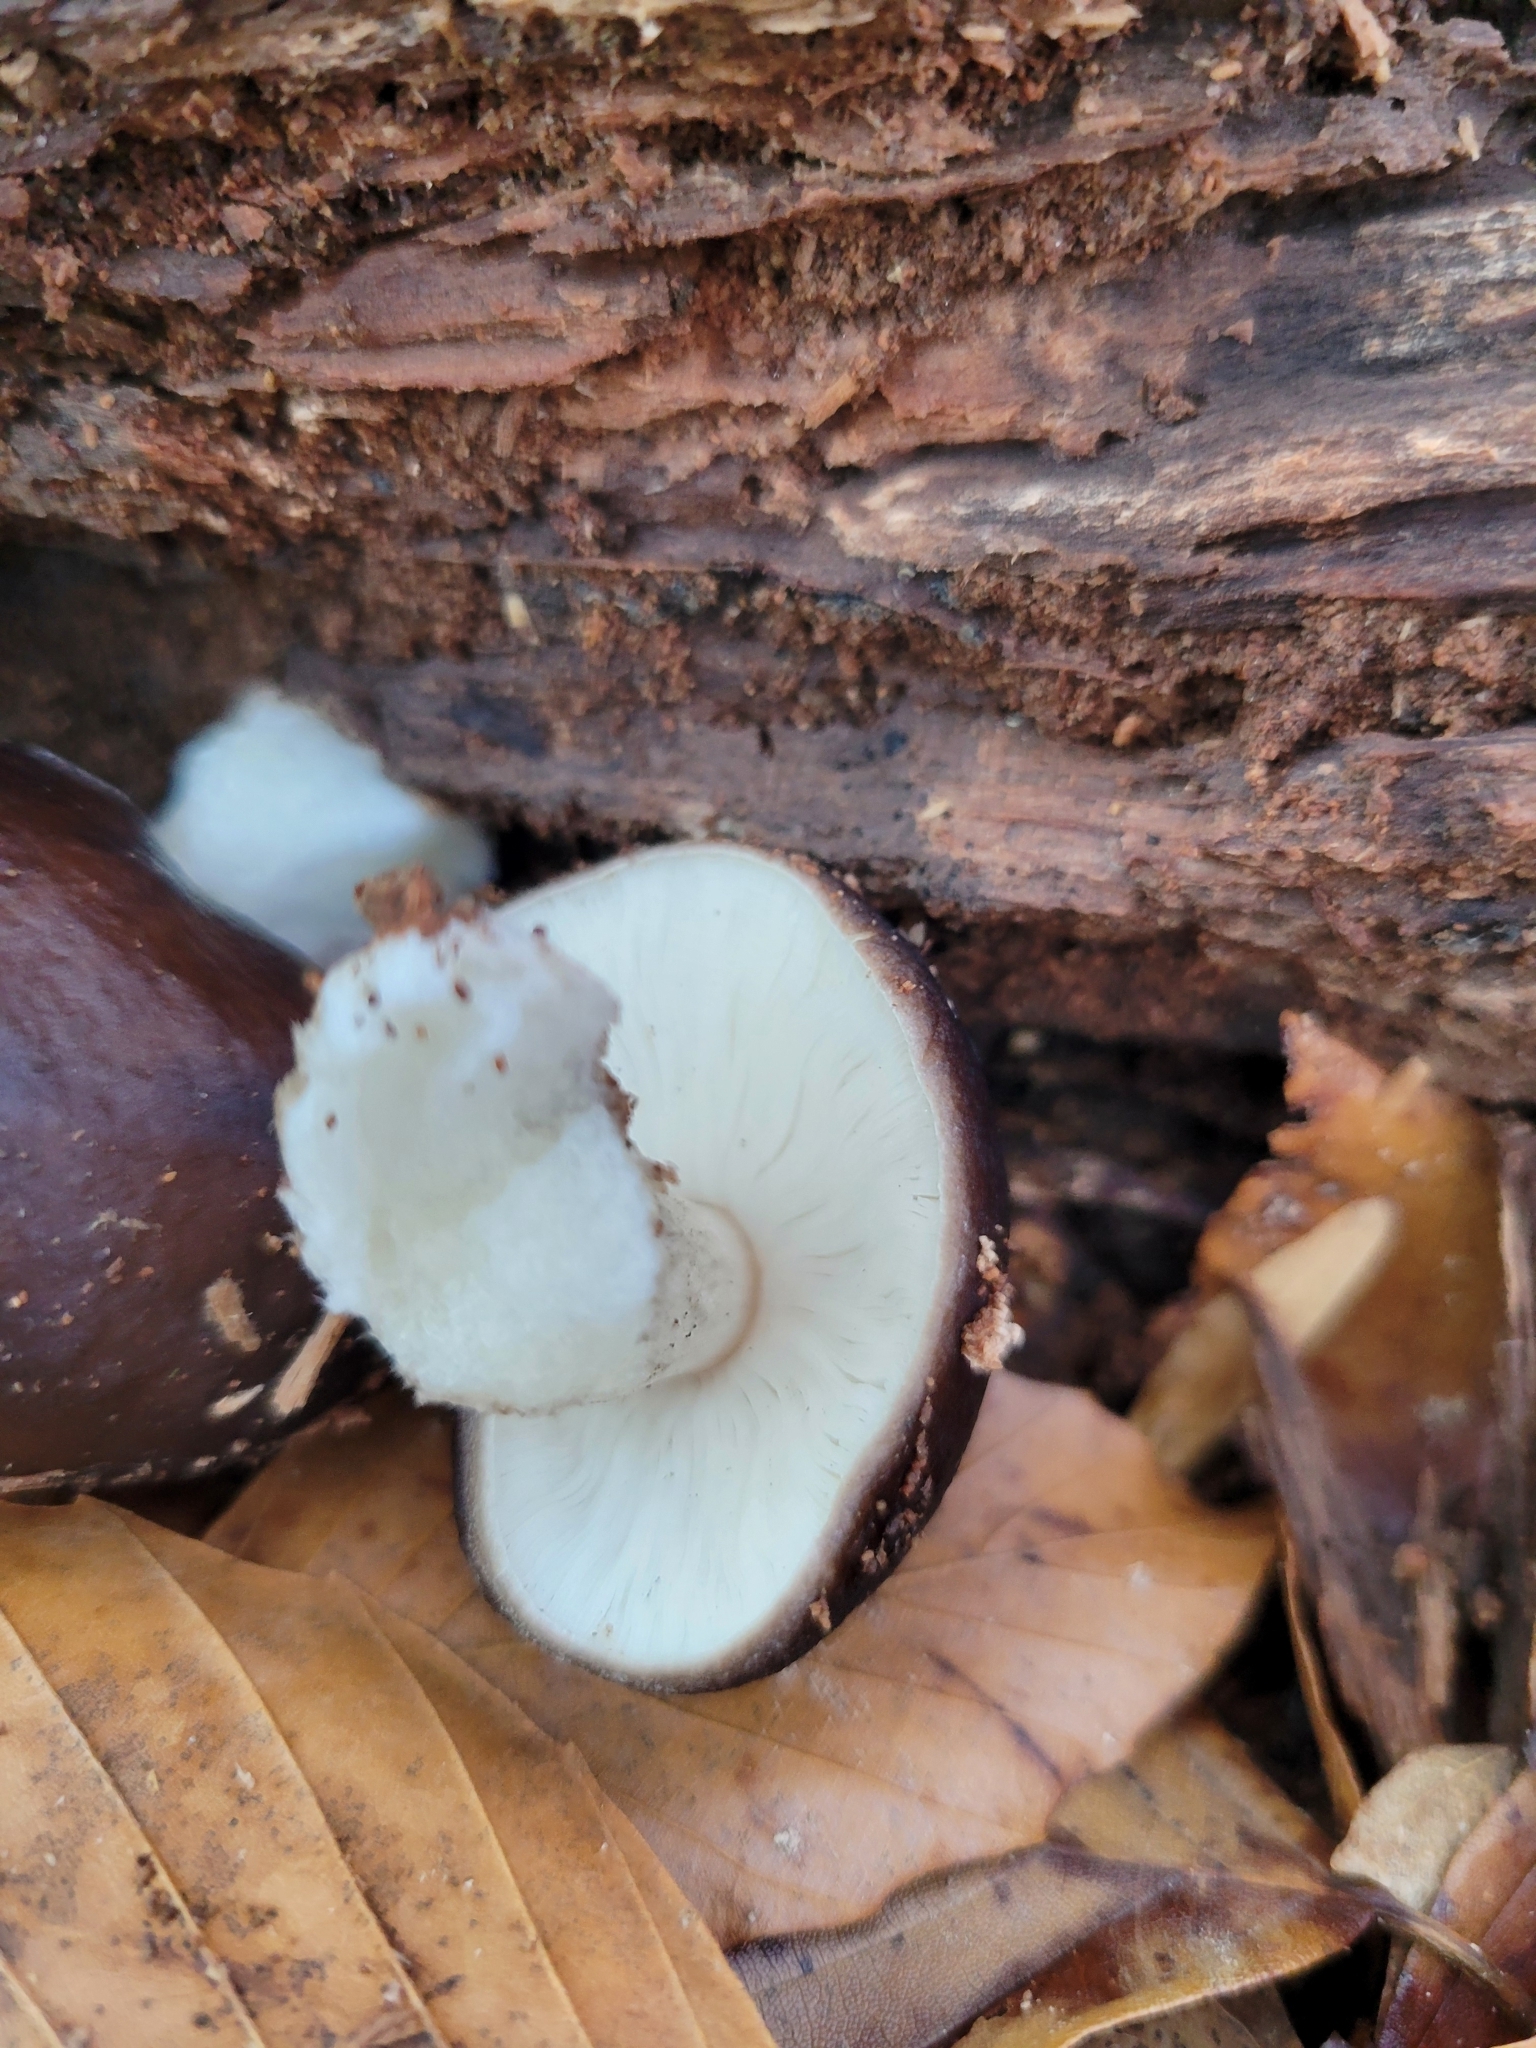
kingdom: Fungi
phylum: Basidiomycota
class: Agaricomycetes
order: Agaricales
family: Pluteaceae
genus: Pluteus
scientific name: Pluteus cervinus
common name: Deer shield
